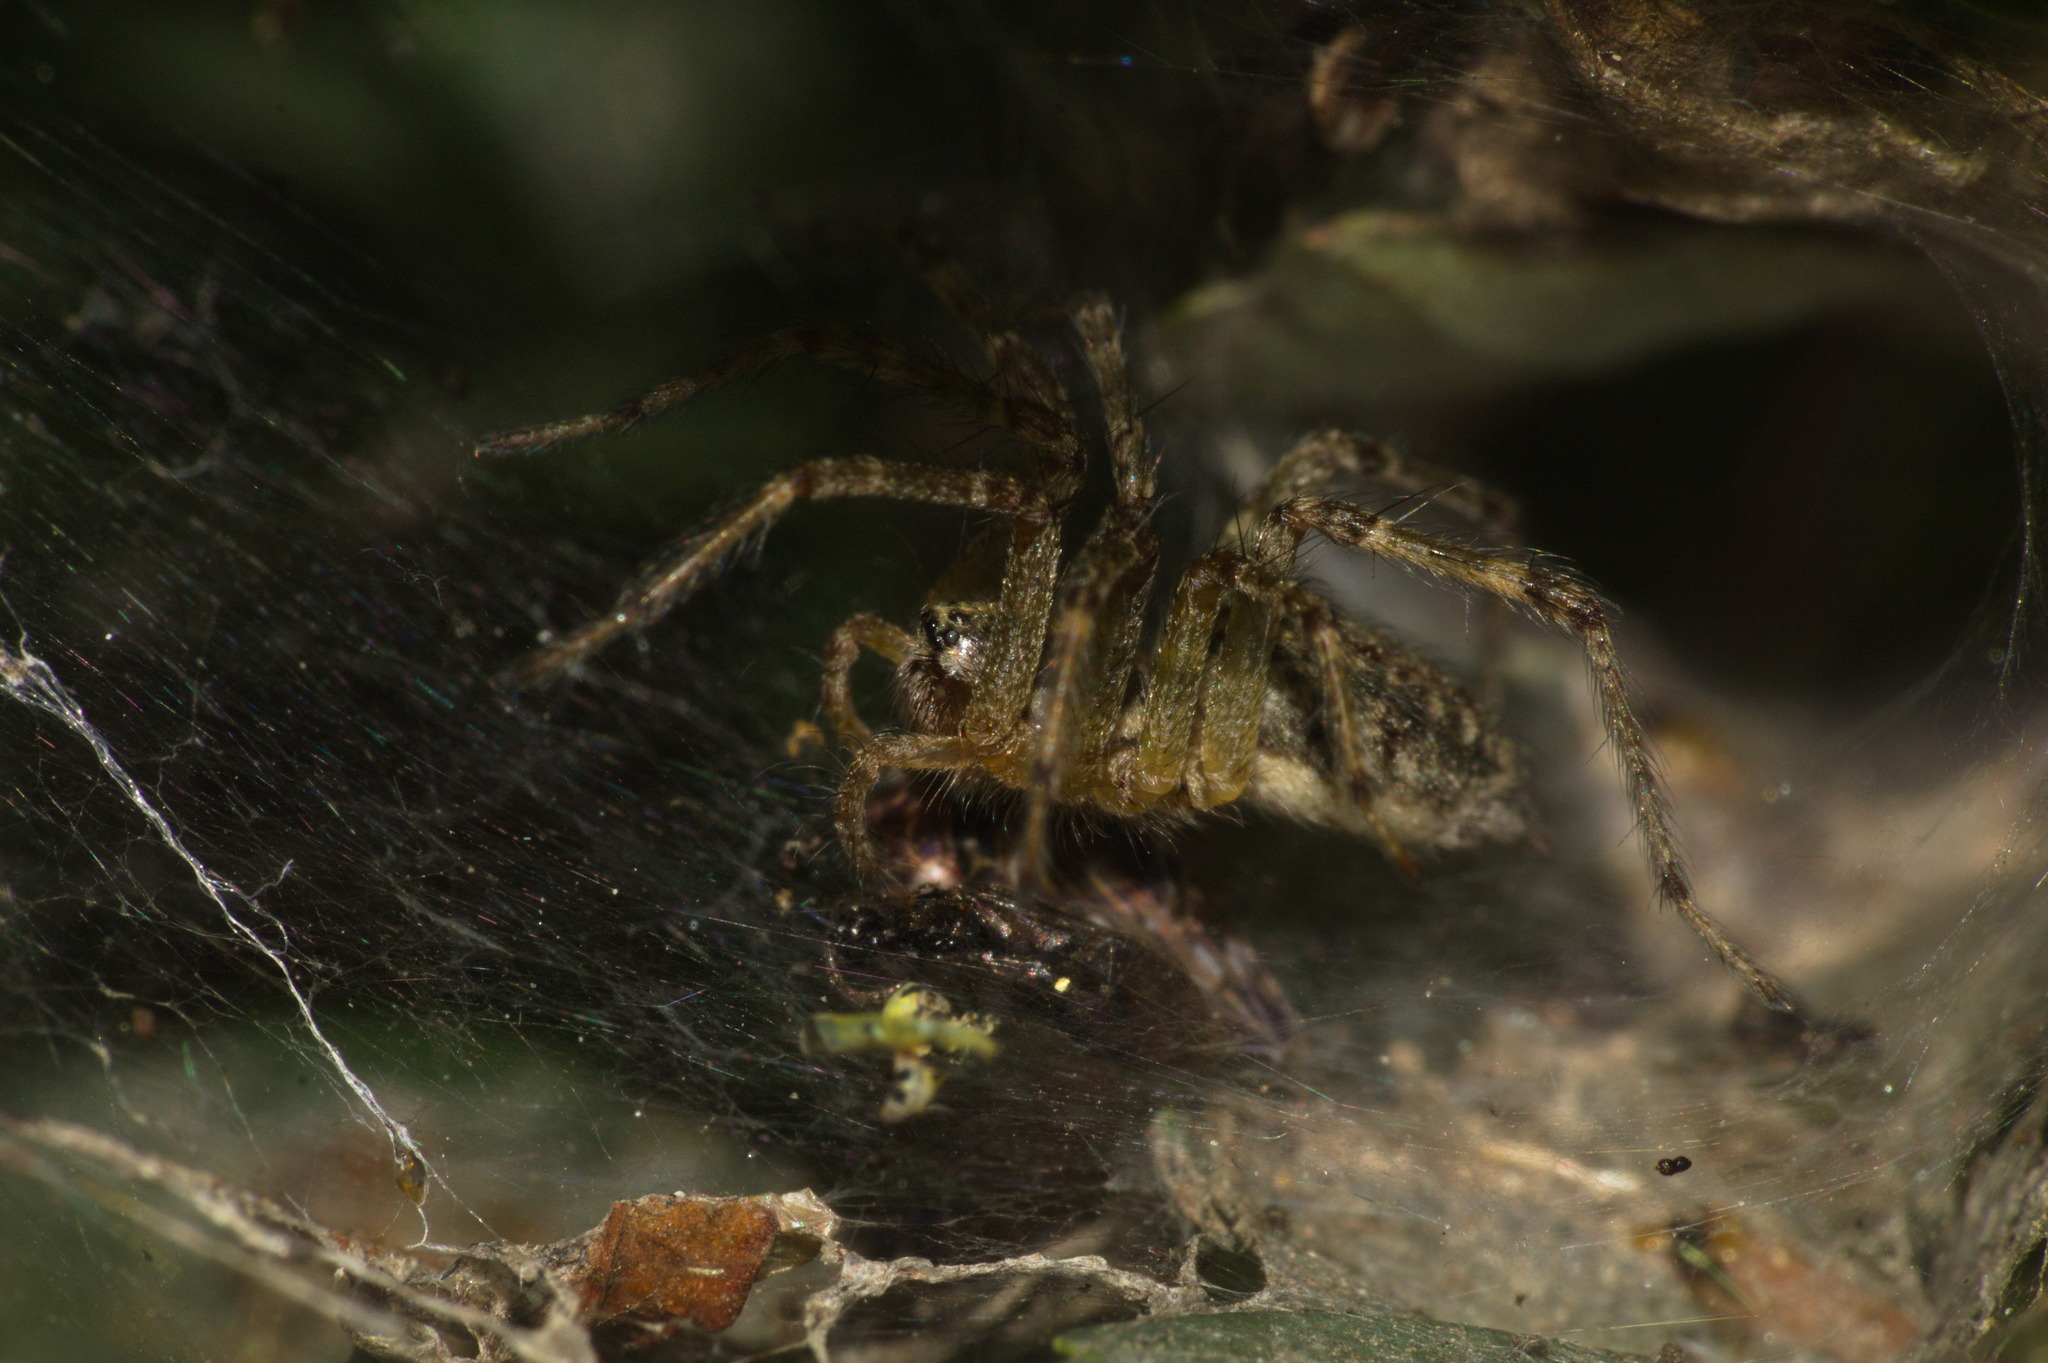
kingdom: Animalia
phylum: Arthropoda
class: Arachnida
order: Araneae
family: Agelenidae
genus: Allagelena
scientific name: Allagelena gracilens
